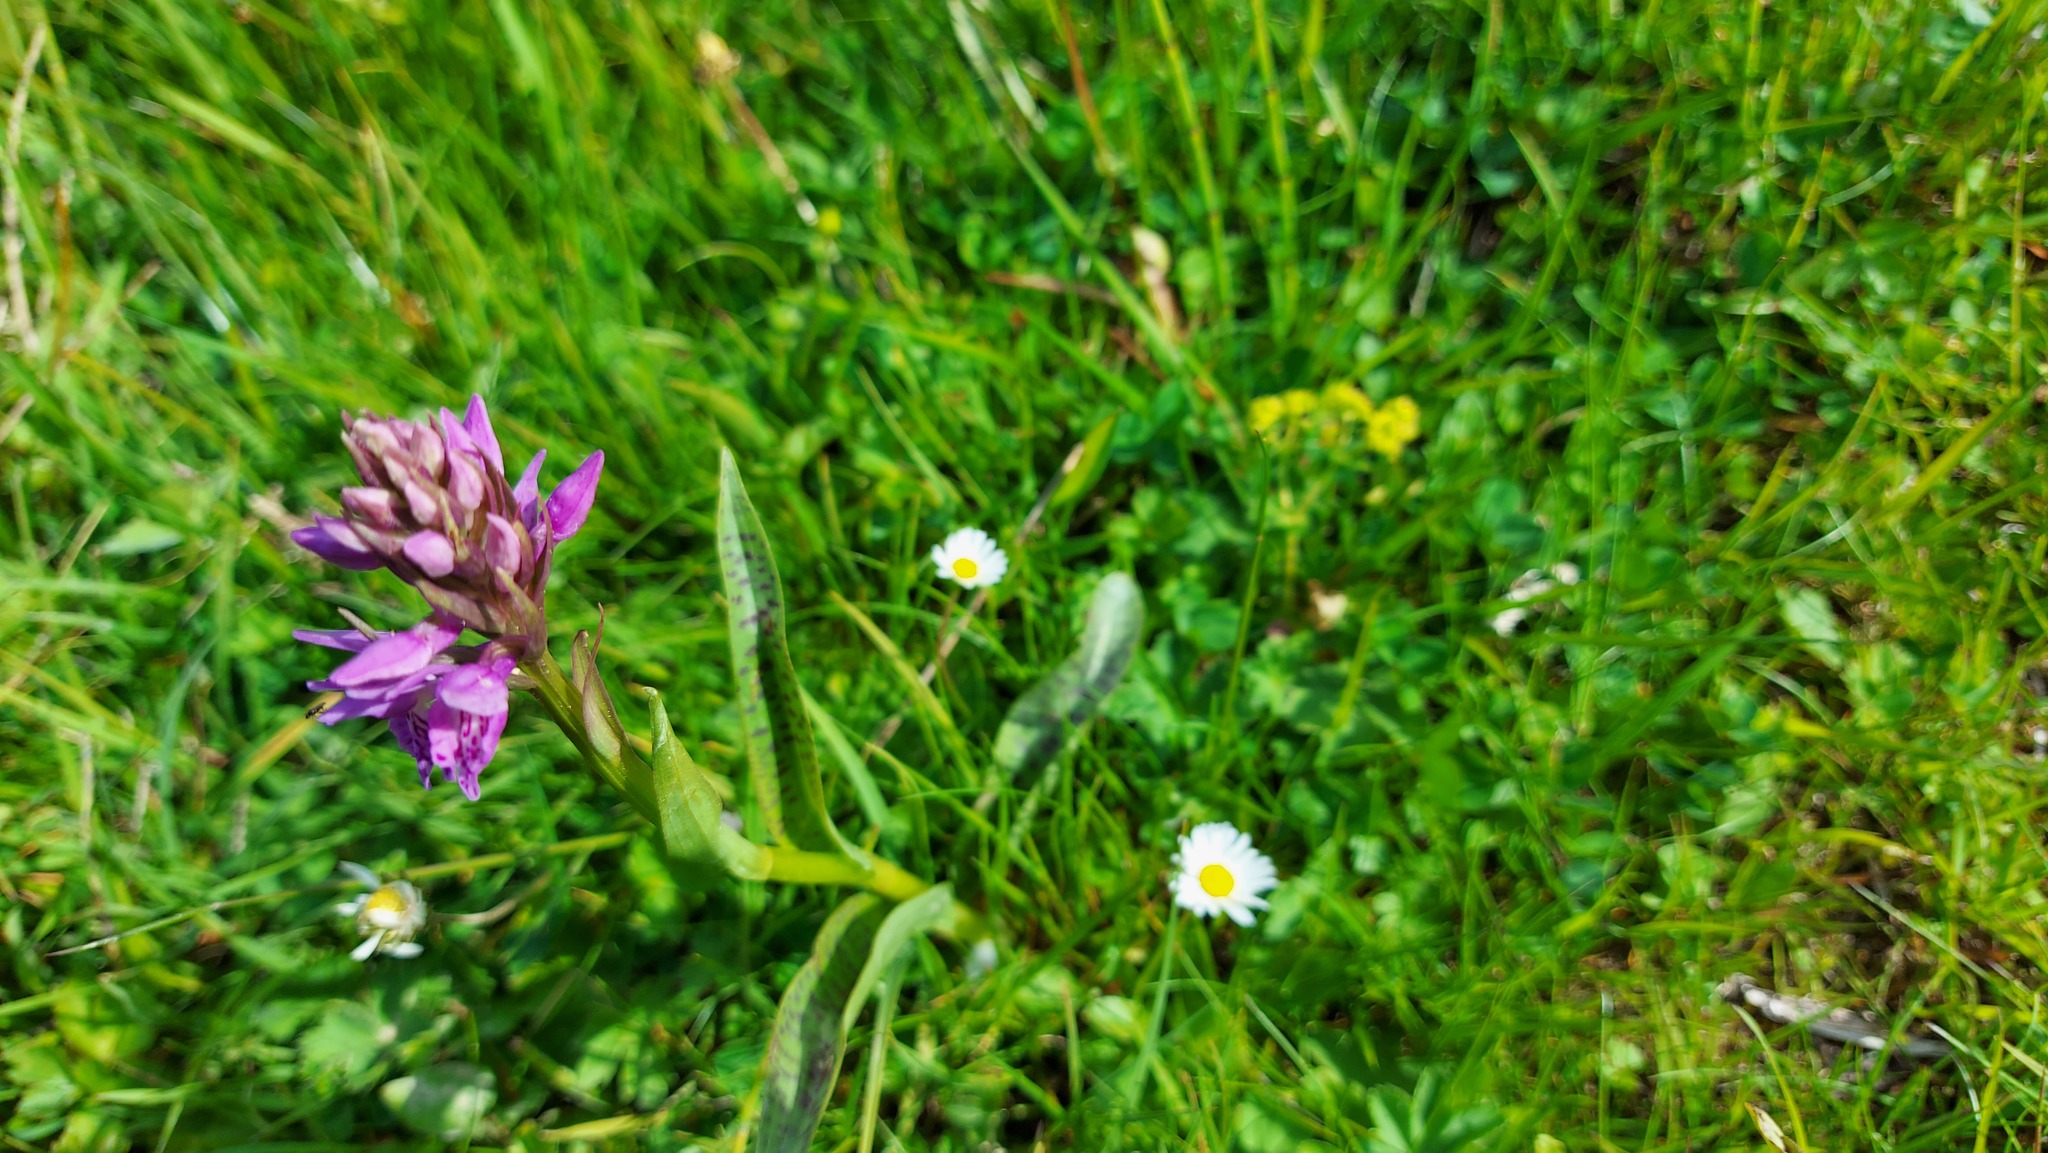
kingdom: Plantae
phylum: Tracheophyta
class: Liliopsida
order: Asparagales
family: Orchidaceae
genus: Dactylorhiza
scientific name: Dactylorhiza majalis
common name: Marsh orchid
